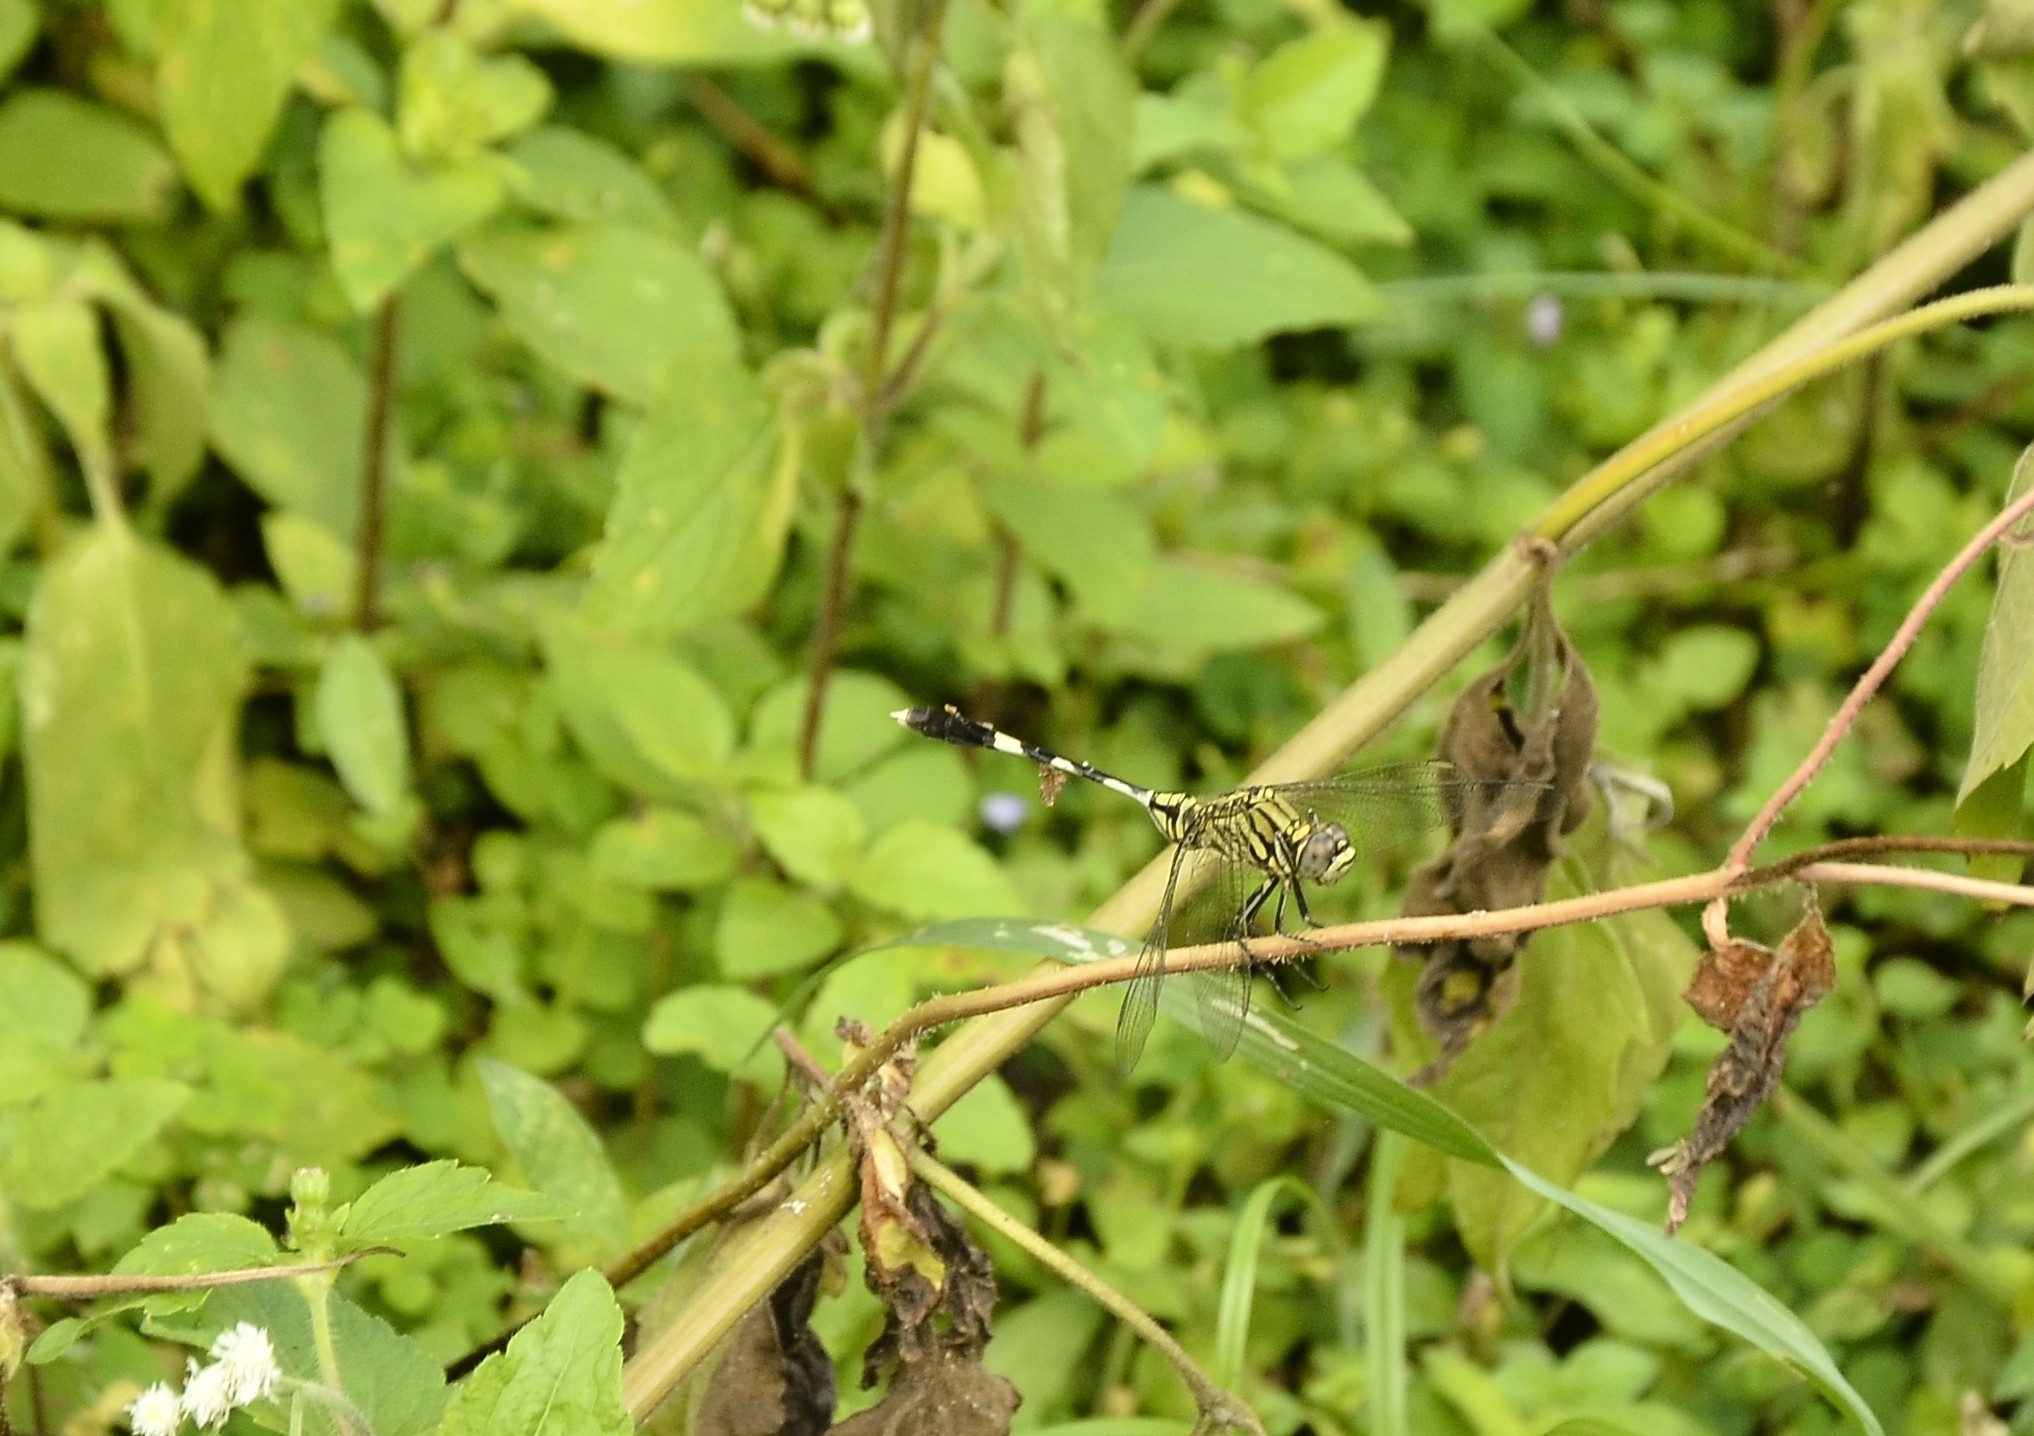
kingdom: Animalia
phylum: Arthropoda
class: Insecta
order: Odonata
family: Libellulidae
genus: Orthetrum
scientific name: Orthetrum sabina
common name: Slender skimmer
